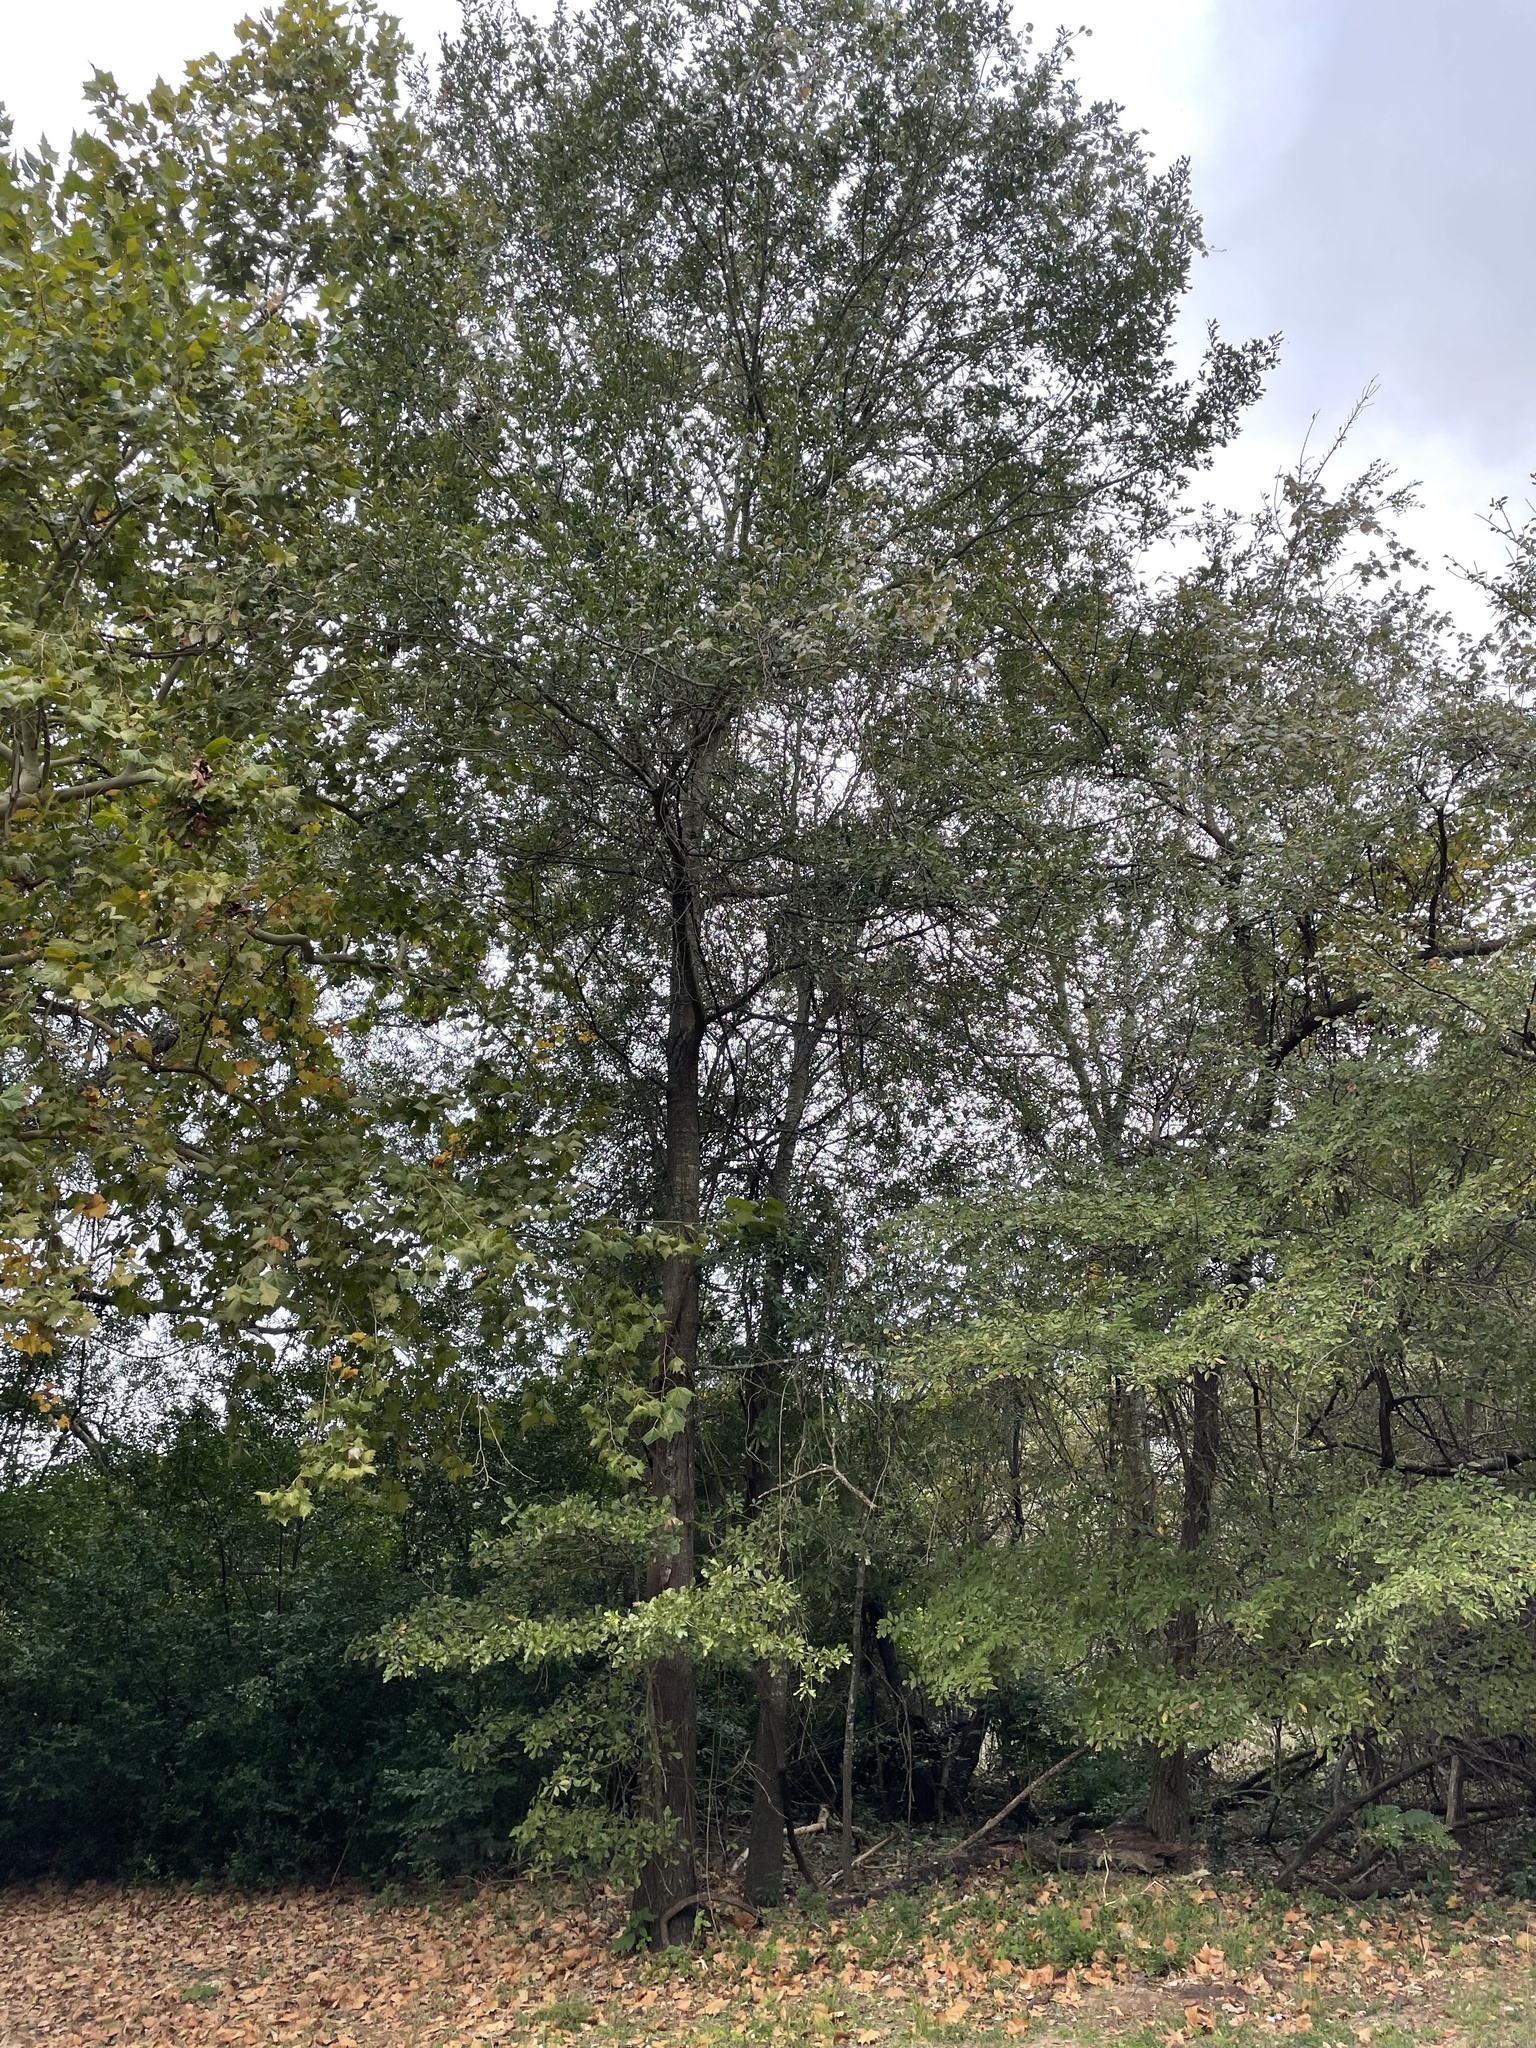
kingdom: Plantae
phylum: Tracheophyta
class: Magnoliopsida
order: Fagales
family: Fagaceae
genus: Quercus
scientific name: Quercus nigra
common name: Water oak
